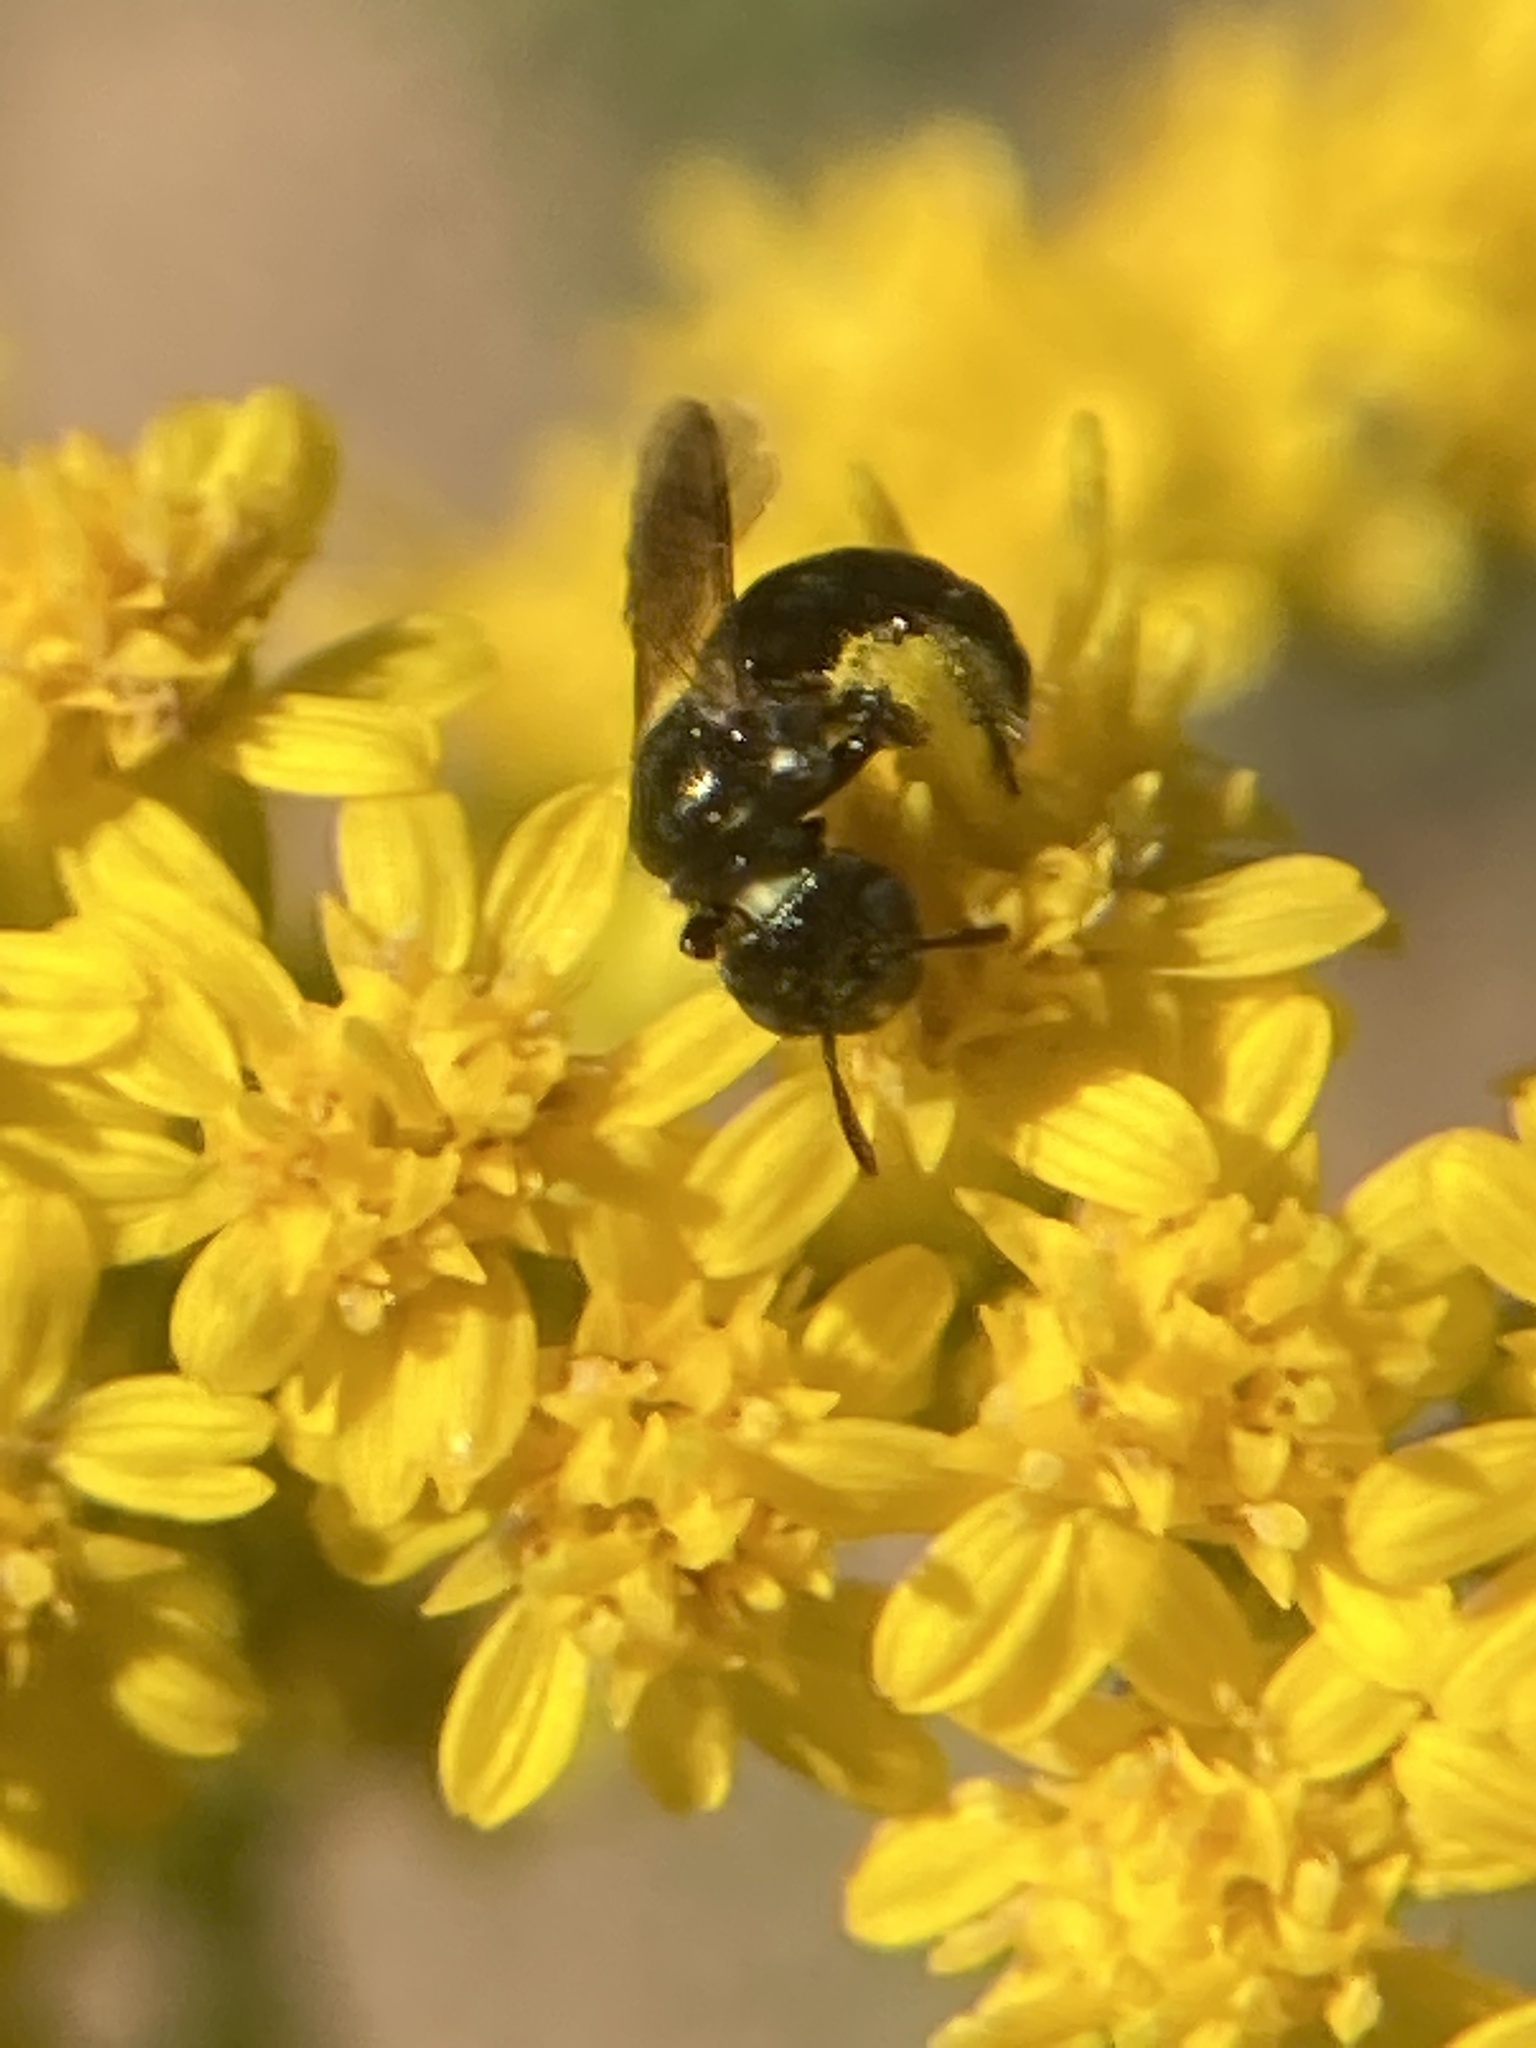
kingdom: Animalia
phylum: Arthropoda
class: Insecta
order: Hymenoptera
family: Apidae
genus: Zadontomerus
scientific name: Zadontomerus
